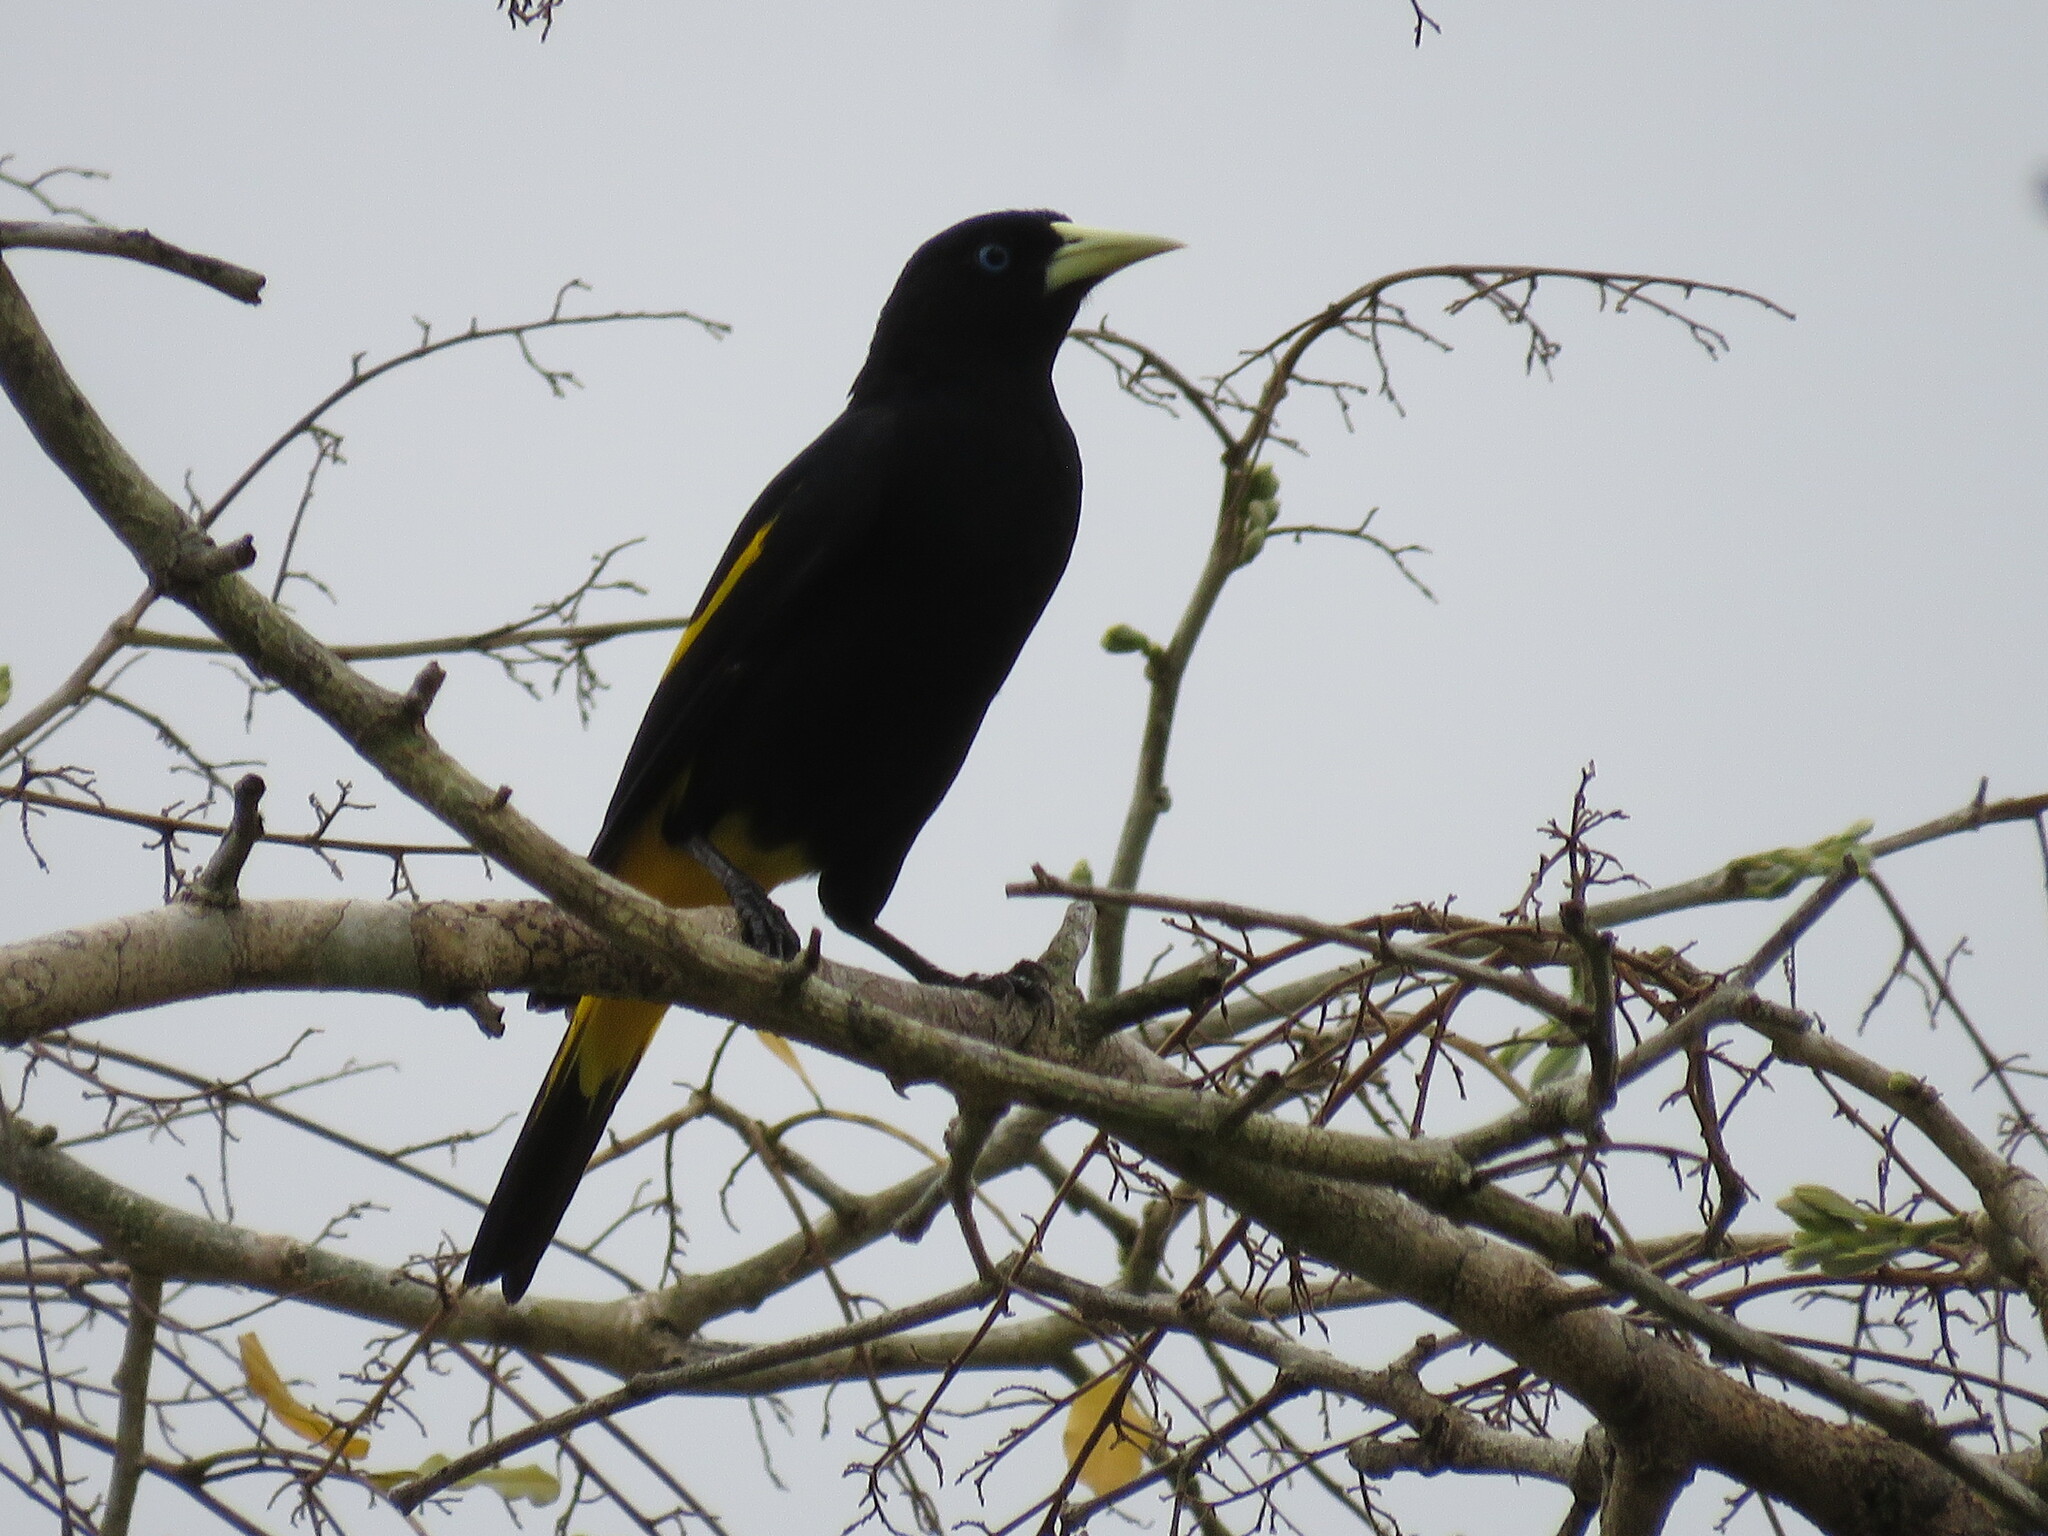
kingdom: Animalia
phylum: Chordata
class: Aves
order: Passeriformes
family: Icteridae
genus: Cacicus
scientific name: Cacicus cela
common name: Yellow-rumped cacique
